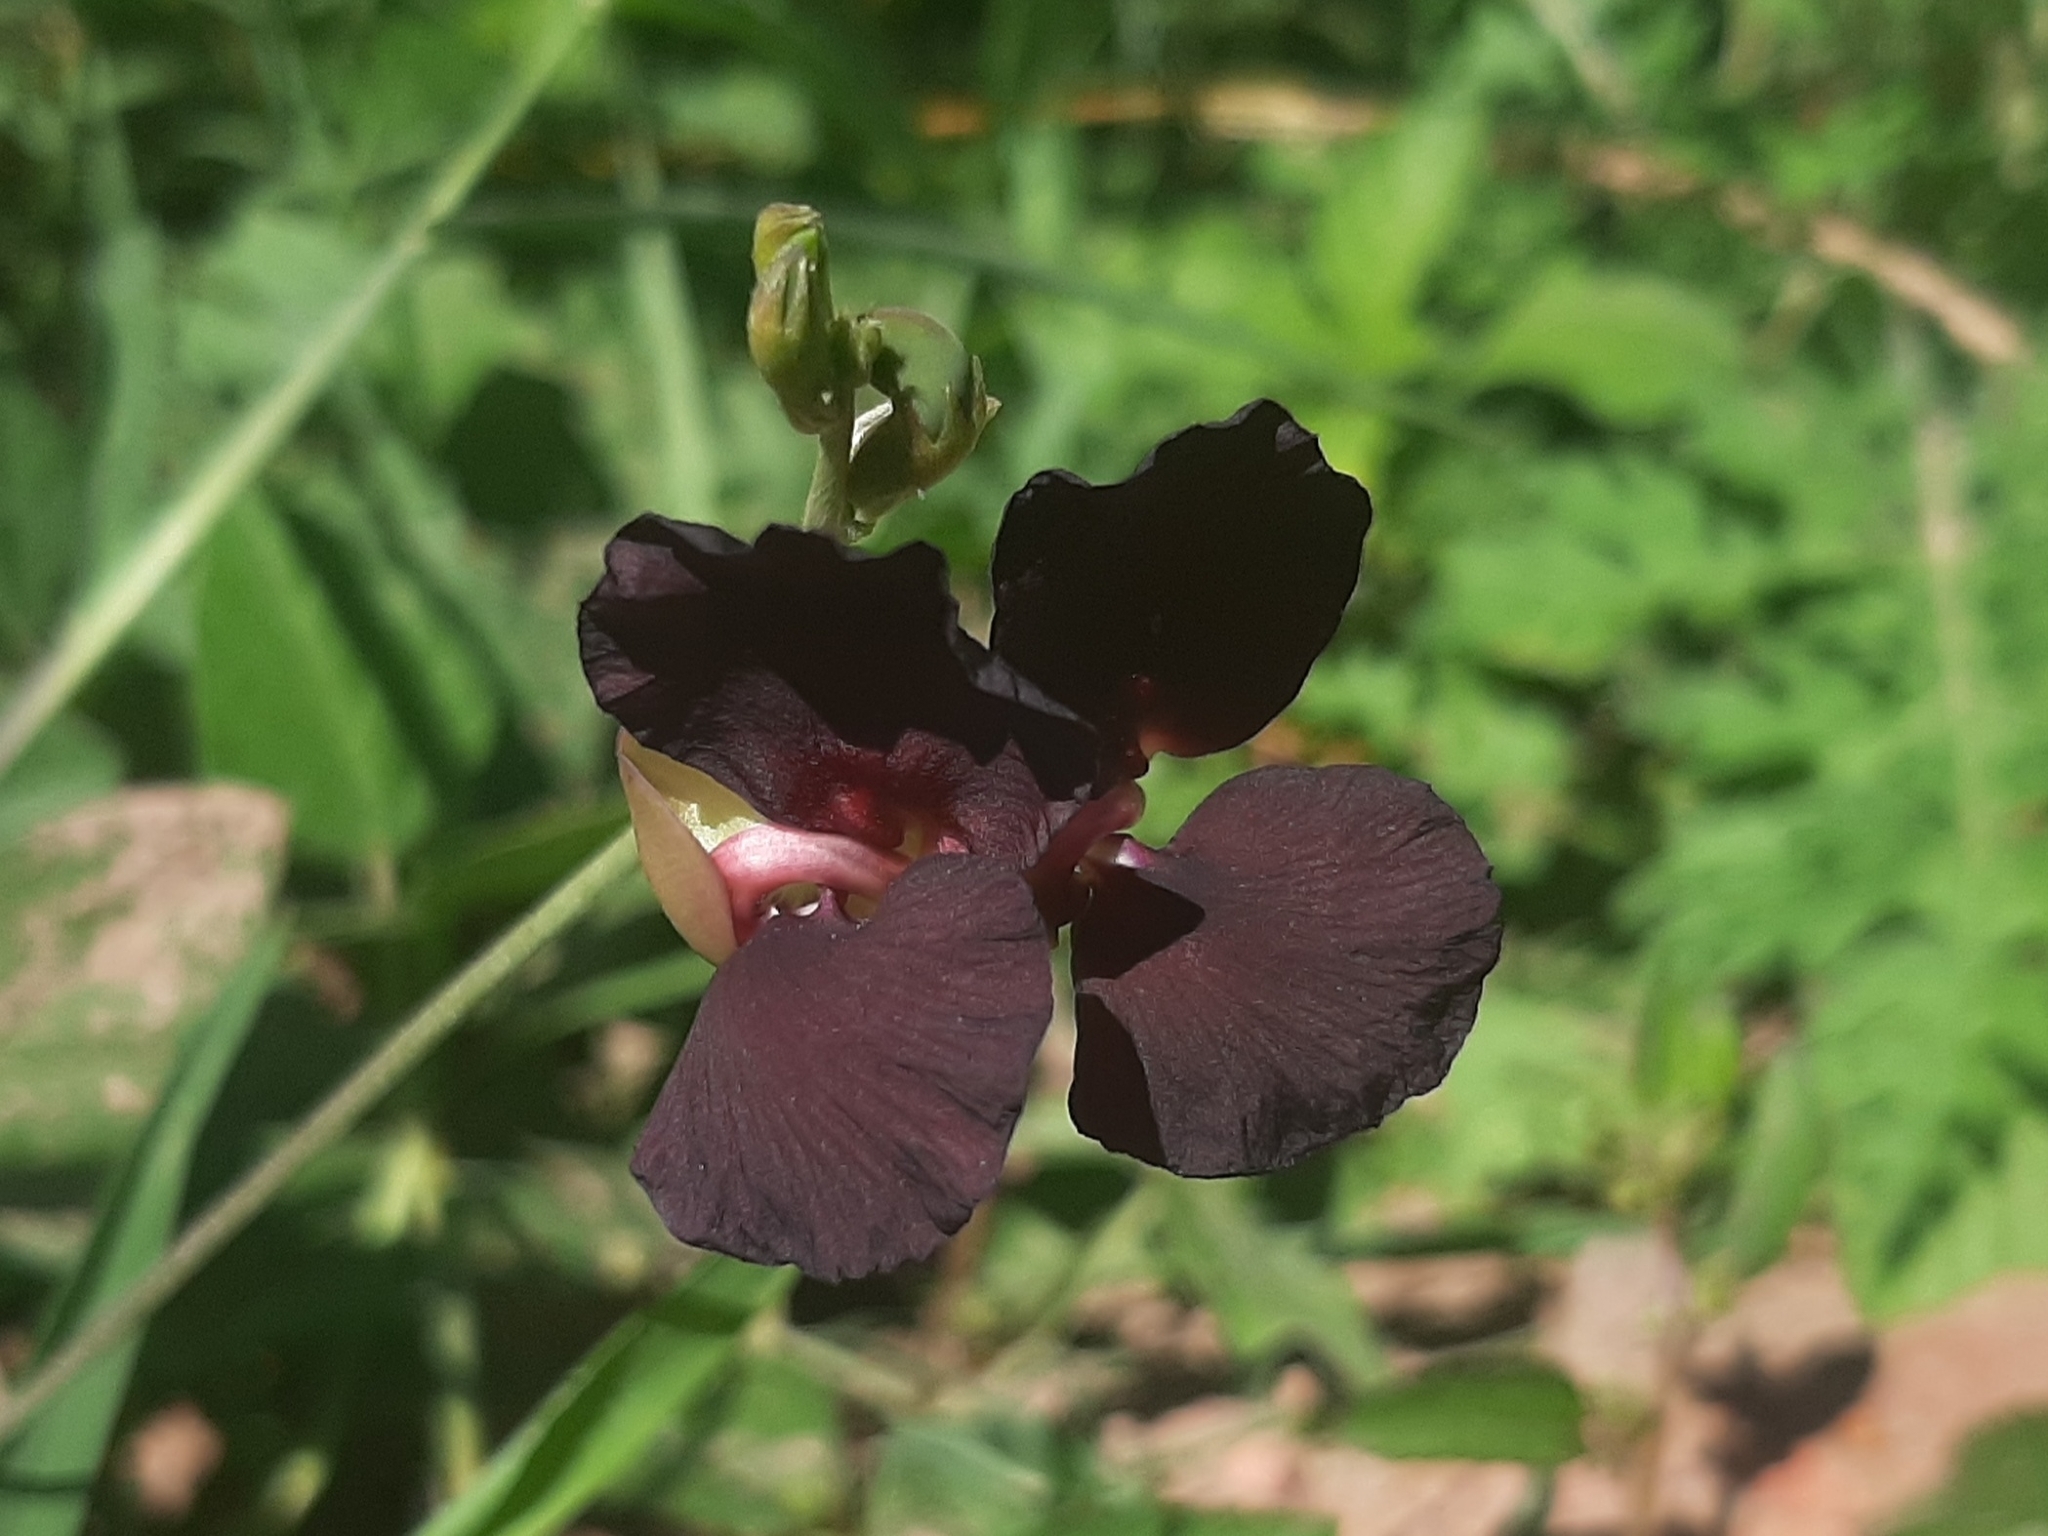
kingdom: Plantae
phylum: Tracheophyta
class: Magnoliopsida
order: Fabales
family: Fabaceae
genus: Macroptilium
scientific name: Macroptilium atropurpureum
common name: Purple bushbean
